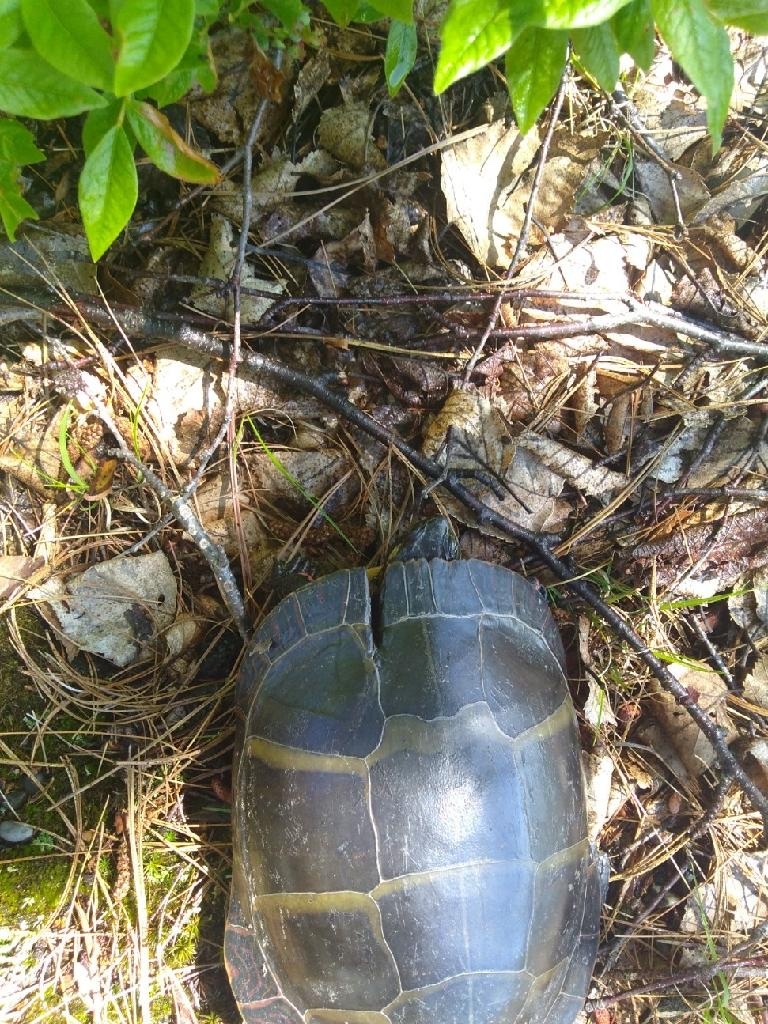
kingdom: Animalia
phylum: Chordata
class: Testudines
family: Emydidae
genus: Chrysemys
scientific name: Chrysemys picta
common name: Painted turtle
